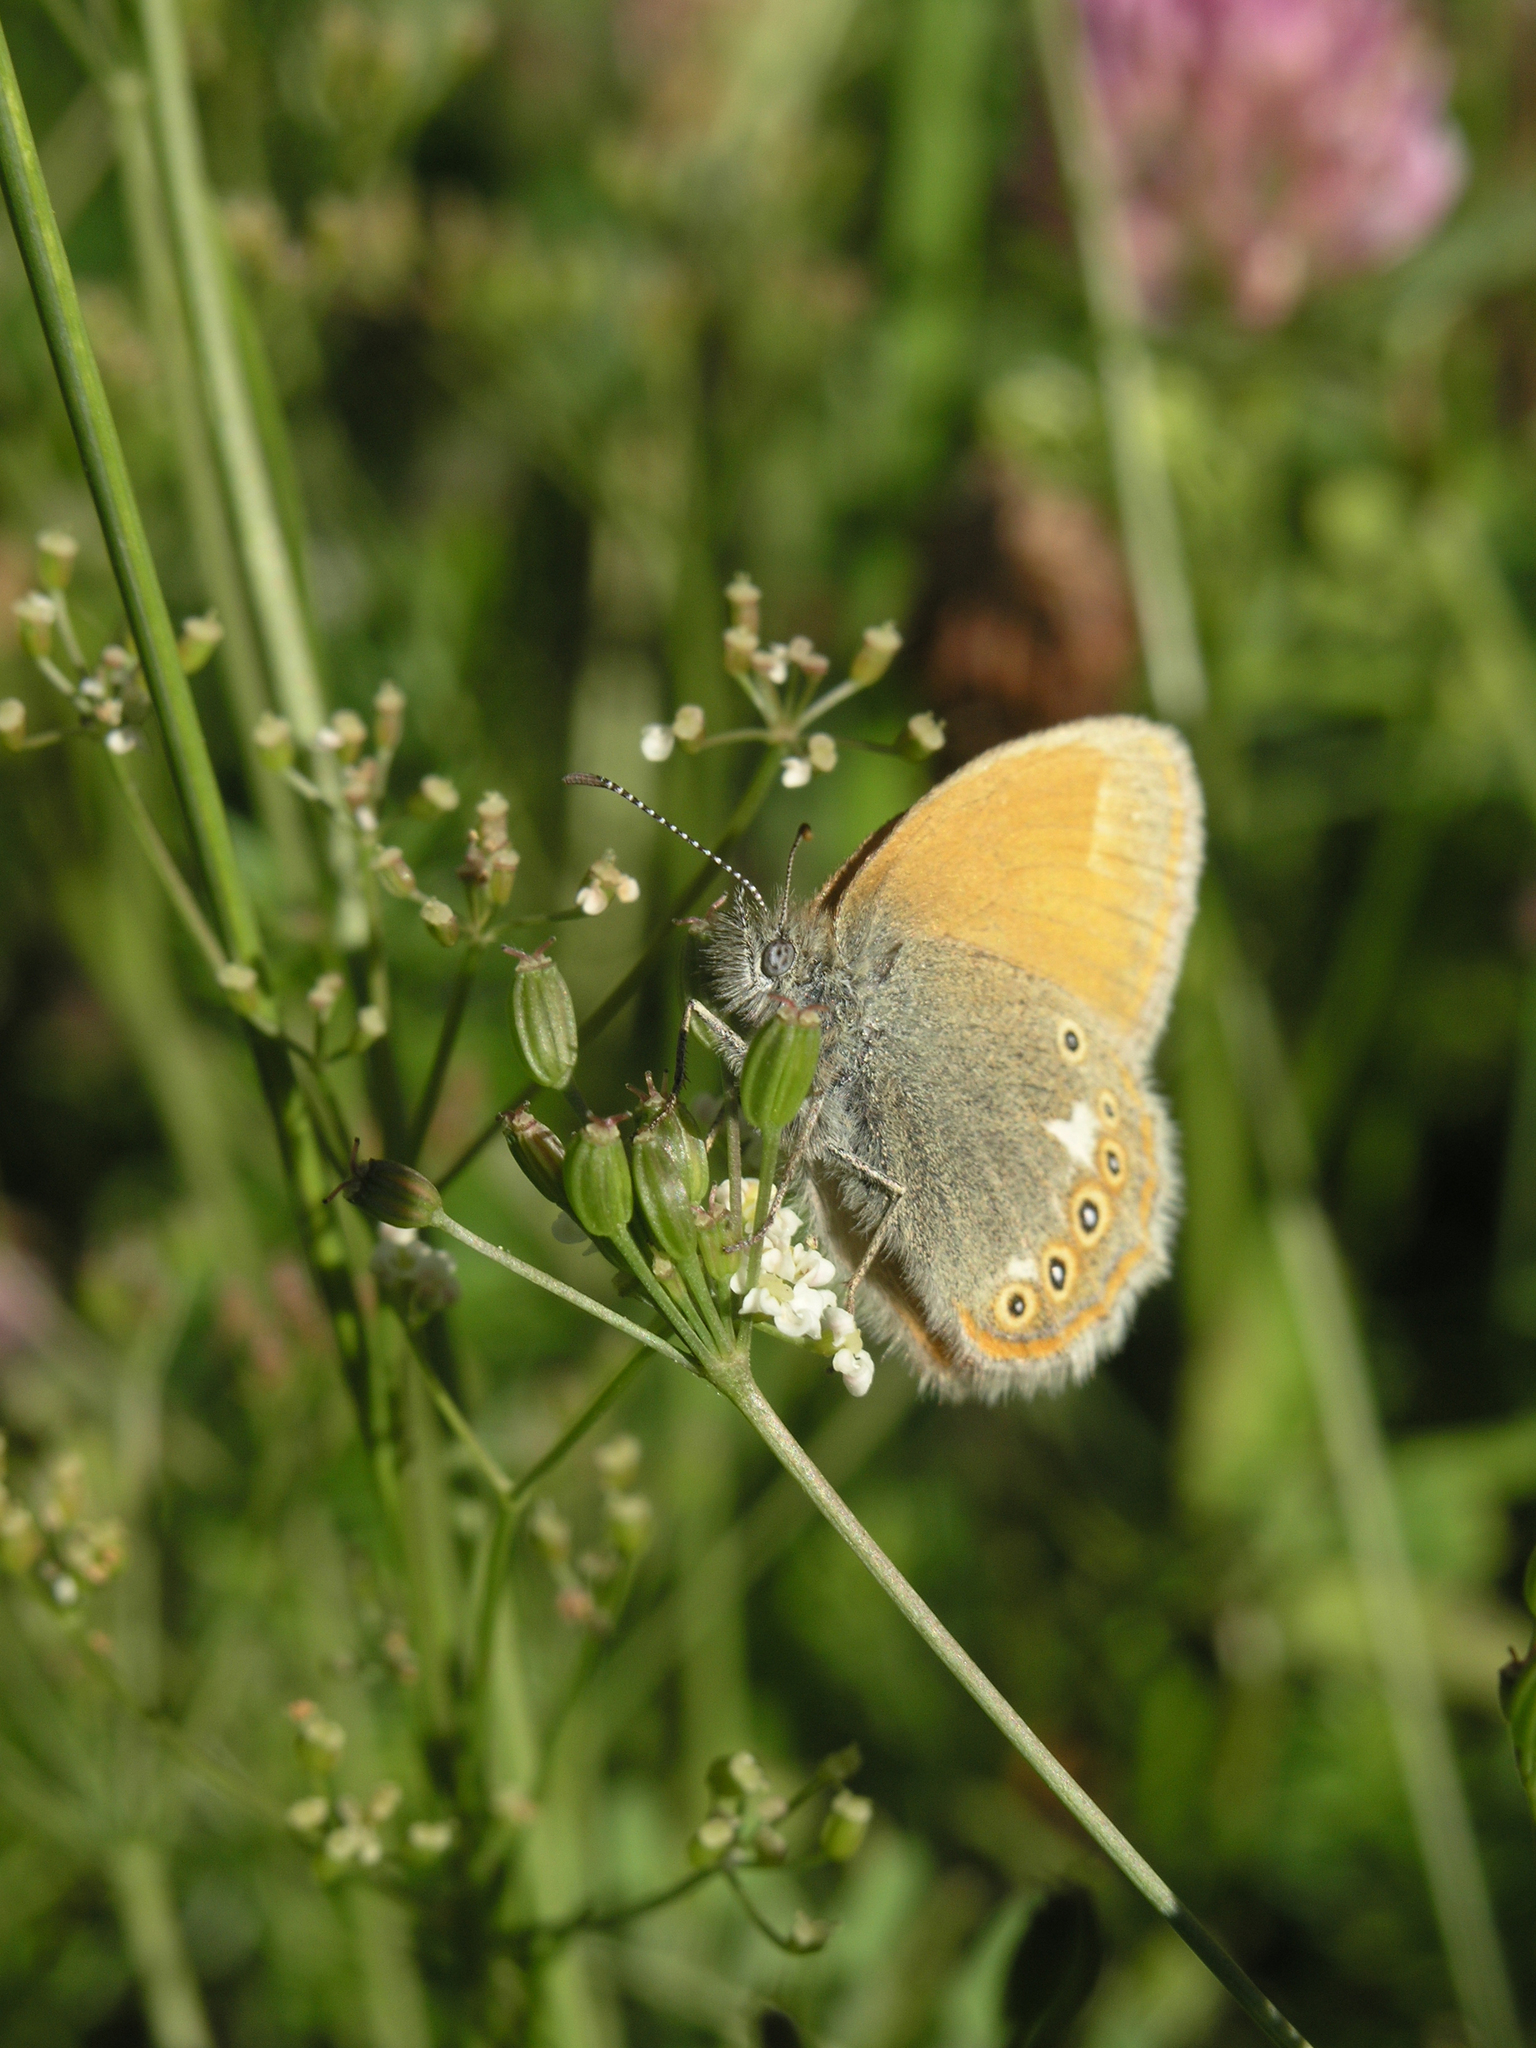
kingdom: Animalia
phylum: Arthropoda
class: Insecta
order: Lepidoptera
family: Nymphalidae
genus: Coenonympha
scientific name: Coenonympha iphis
